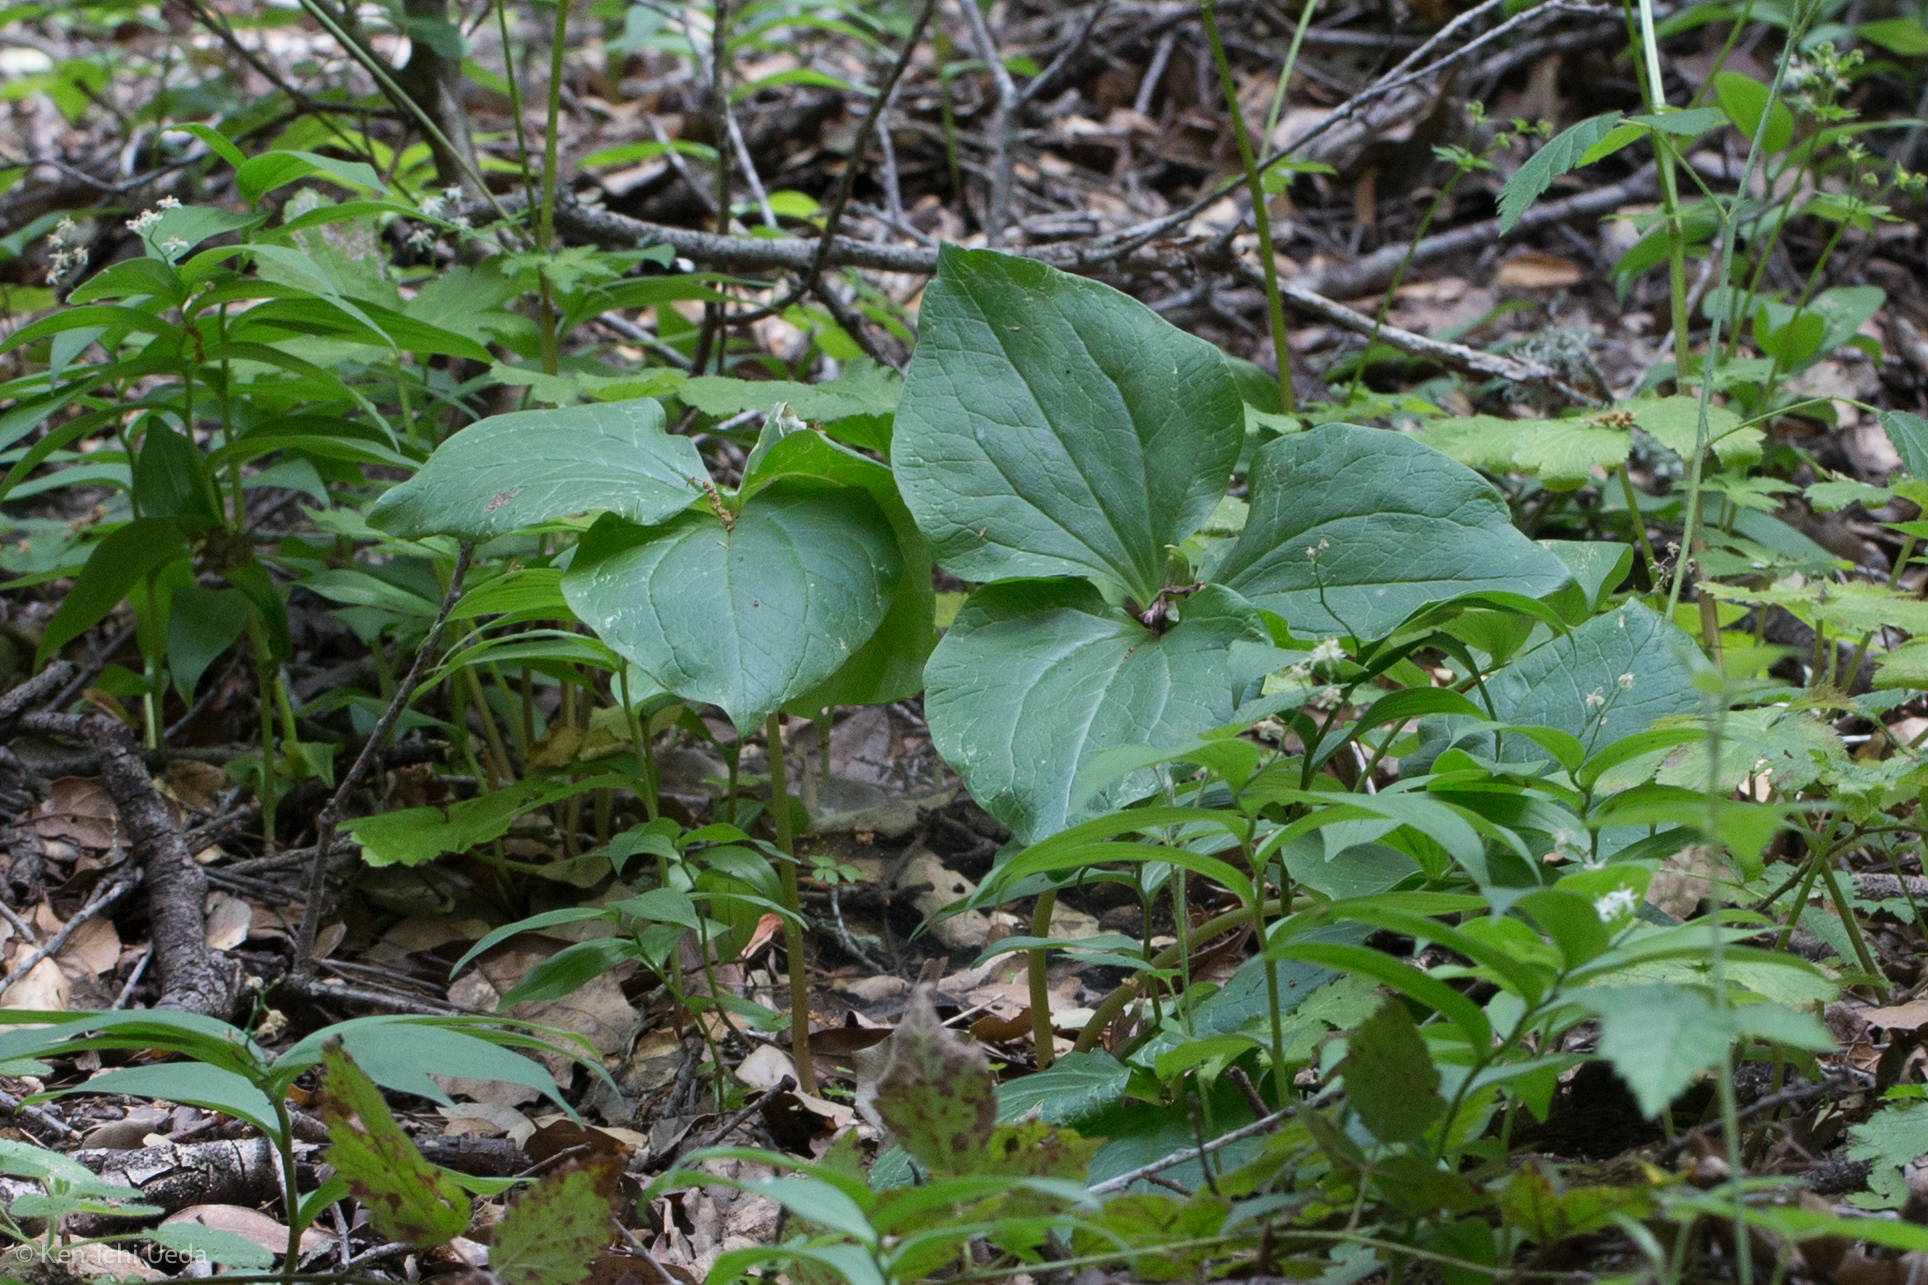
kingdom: Plantae
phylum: Tracheophyta
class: Liliopsida
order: Liliales
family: Melanthiaceae
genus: Trillium
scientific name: Trillium chloropetalum
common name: Giant trillium
